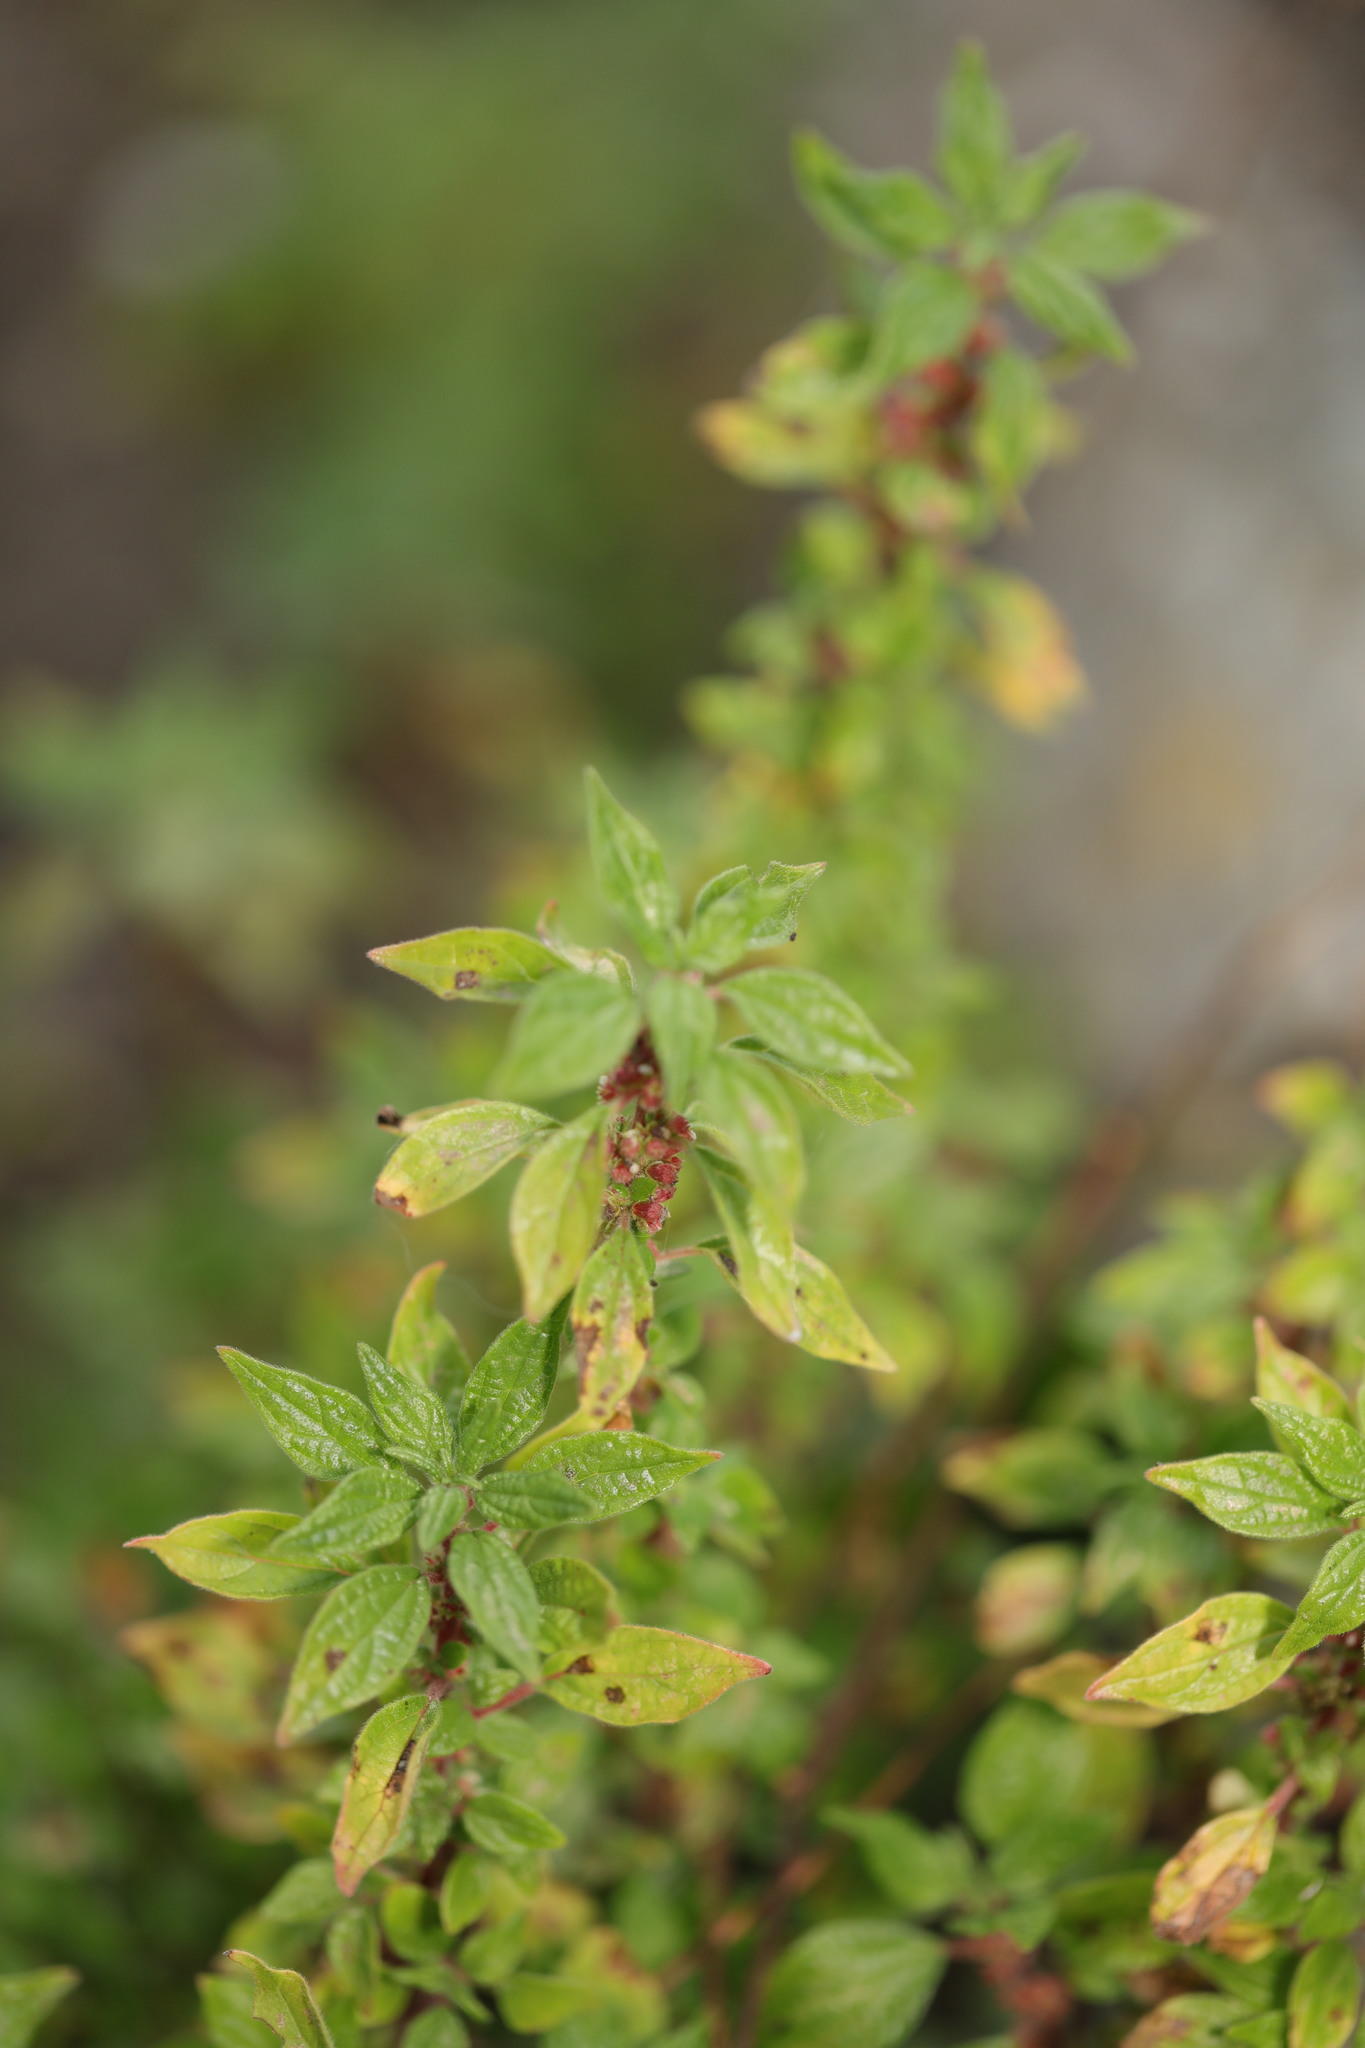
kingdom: Plantae
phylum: Tracheophyta
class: Magnoliopsida
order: Rosales
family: Urticaceae
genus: Parietaria
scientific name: Parietaria judaica
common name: Pellitory-of-the-wall
